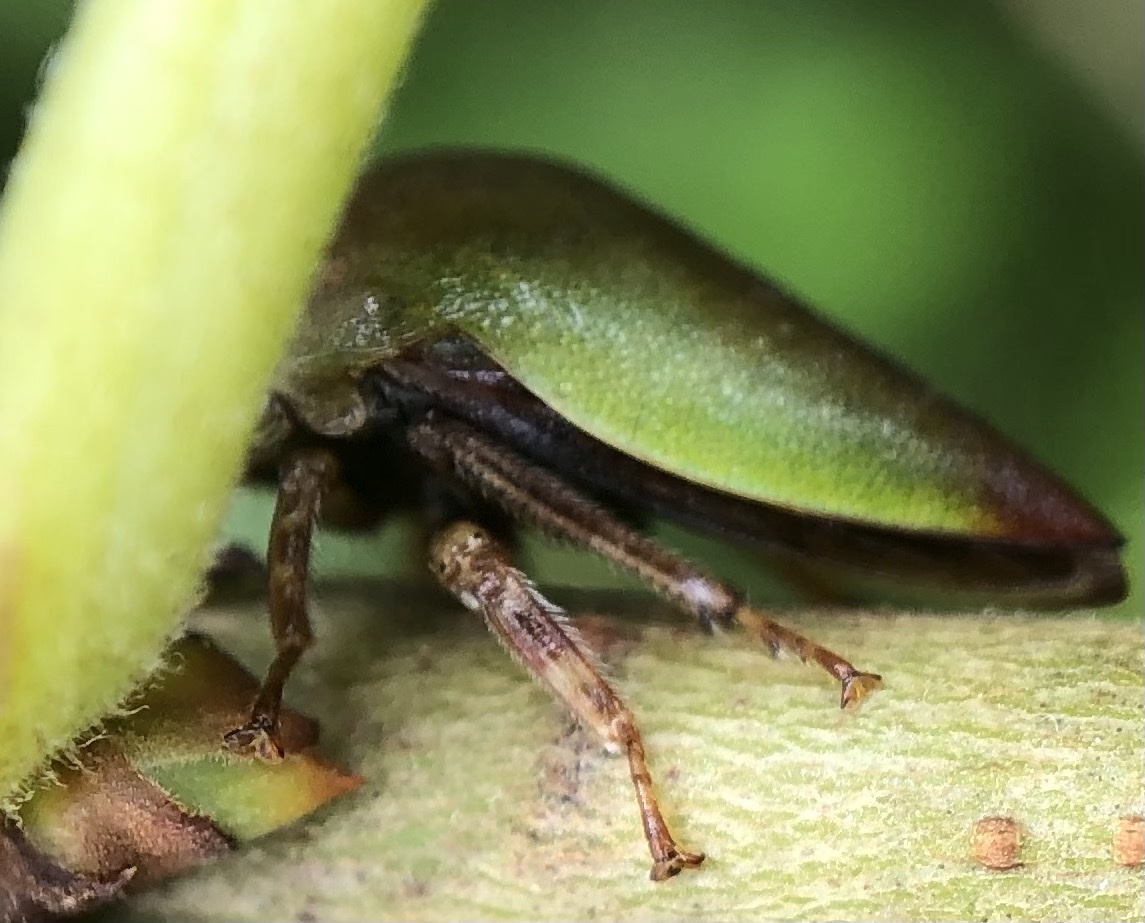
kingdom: Animalia
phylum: Arthropoda
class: Insecta
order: Hemiptera
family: Membracidae
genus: Hebetica
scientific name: Hebetica
